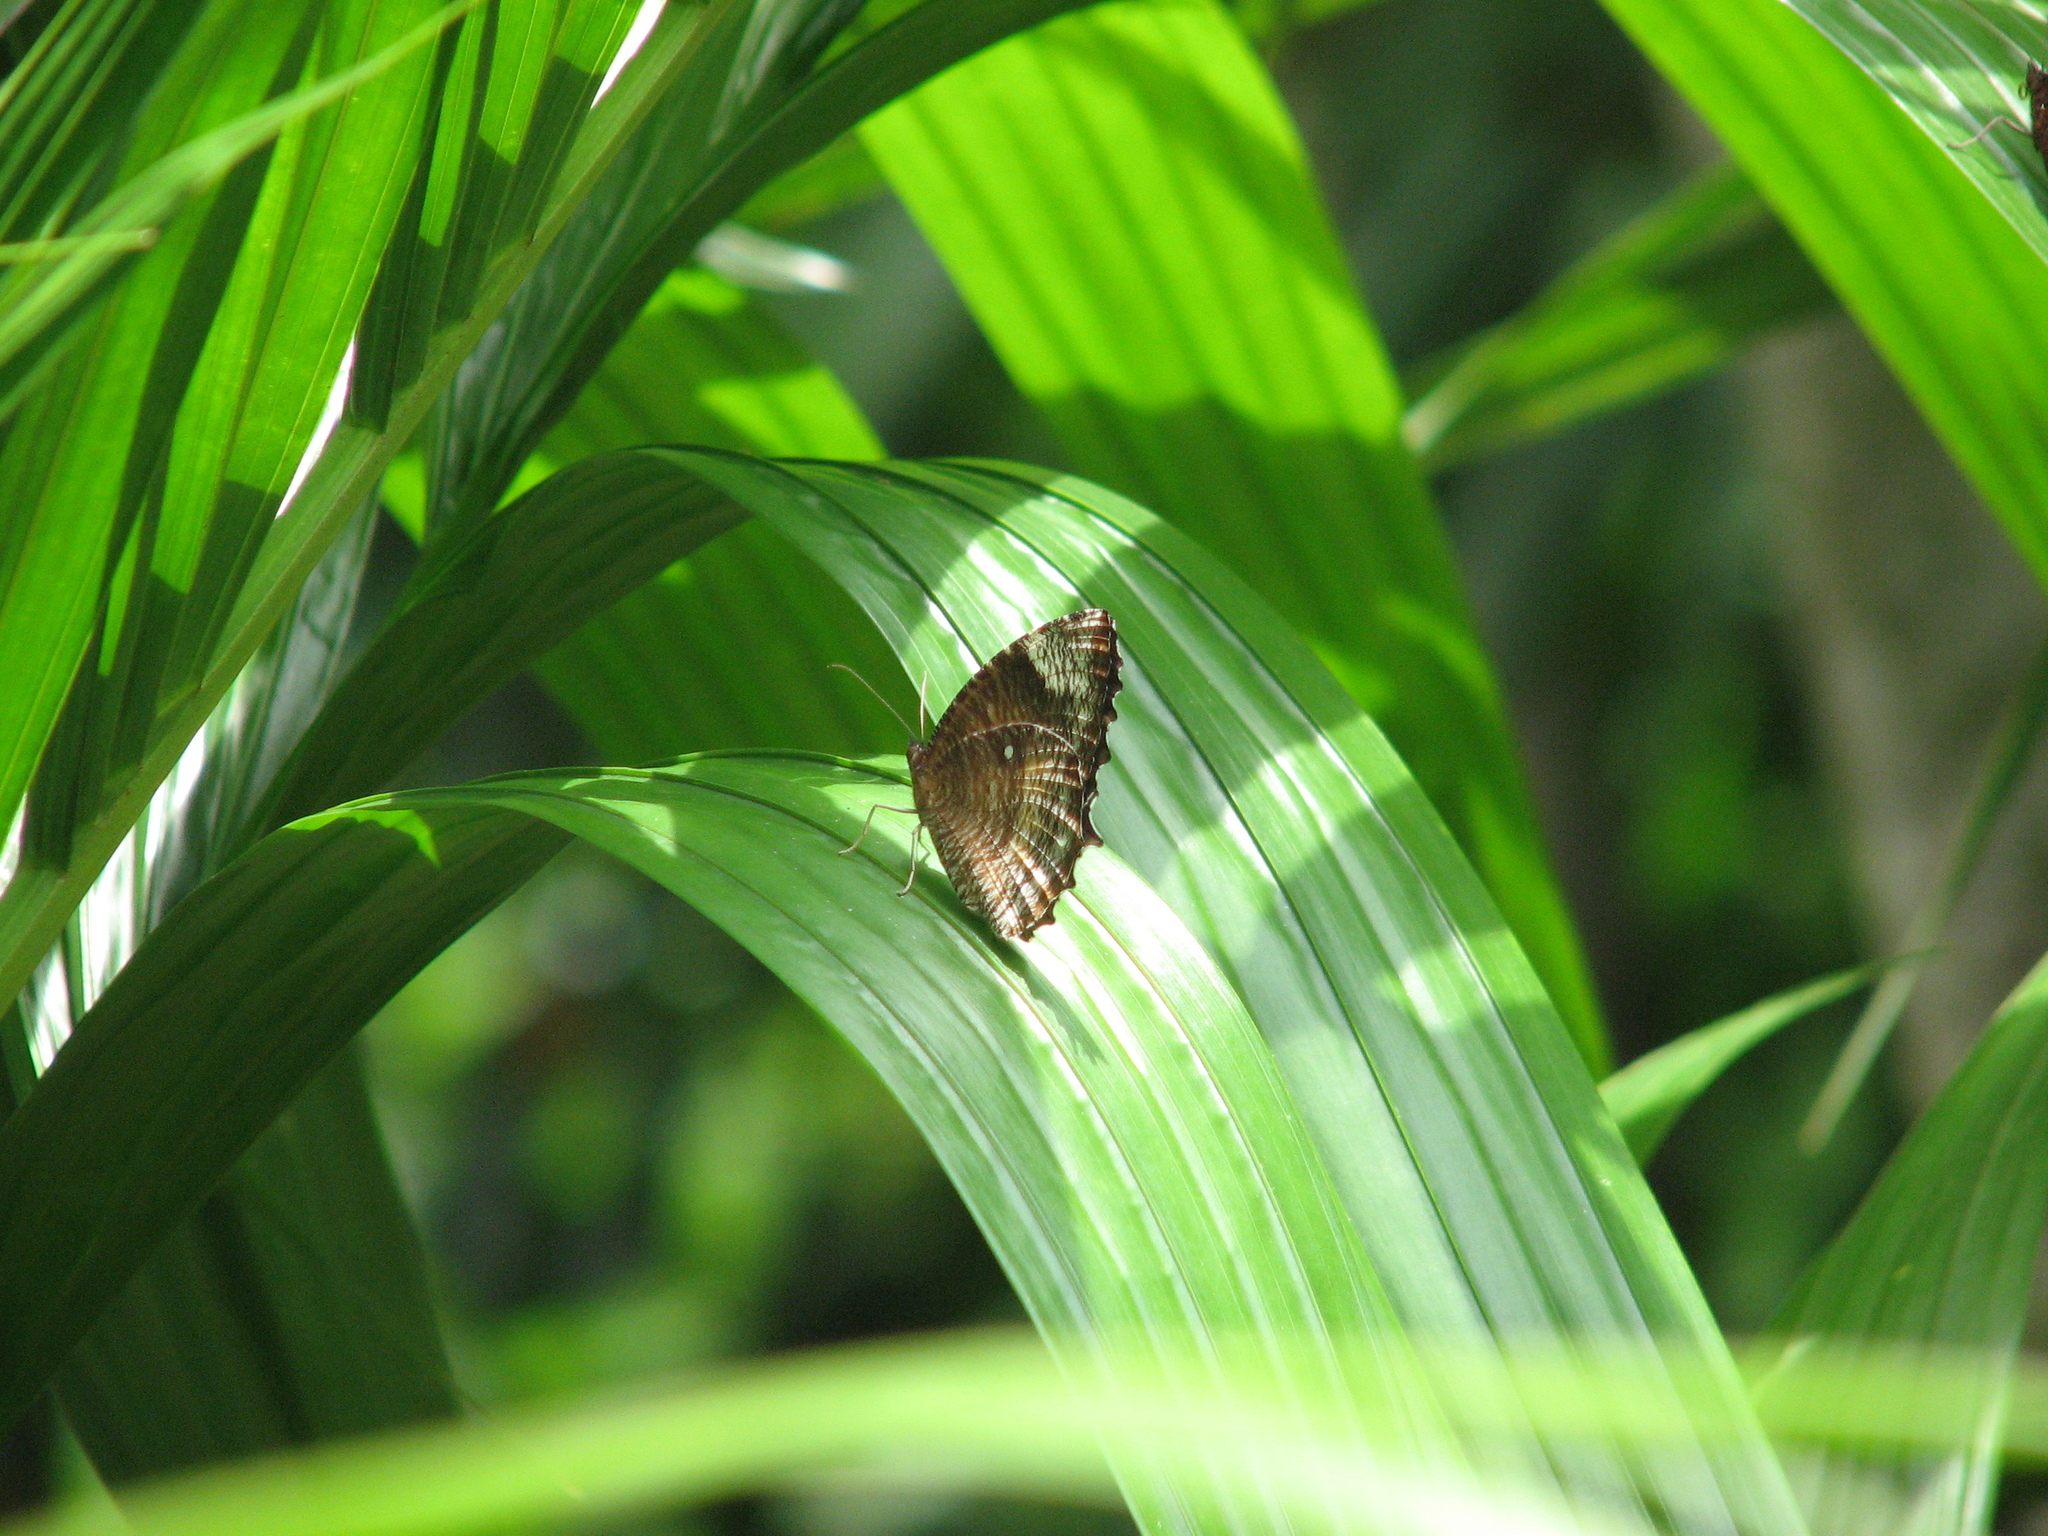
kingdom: Animalia
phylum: Arthropoda
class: Insecta
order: Lepidoptera
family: Nymphalidae
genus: Elymnias
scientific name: Elymnias hypermnestra
